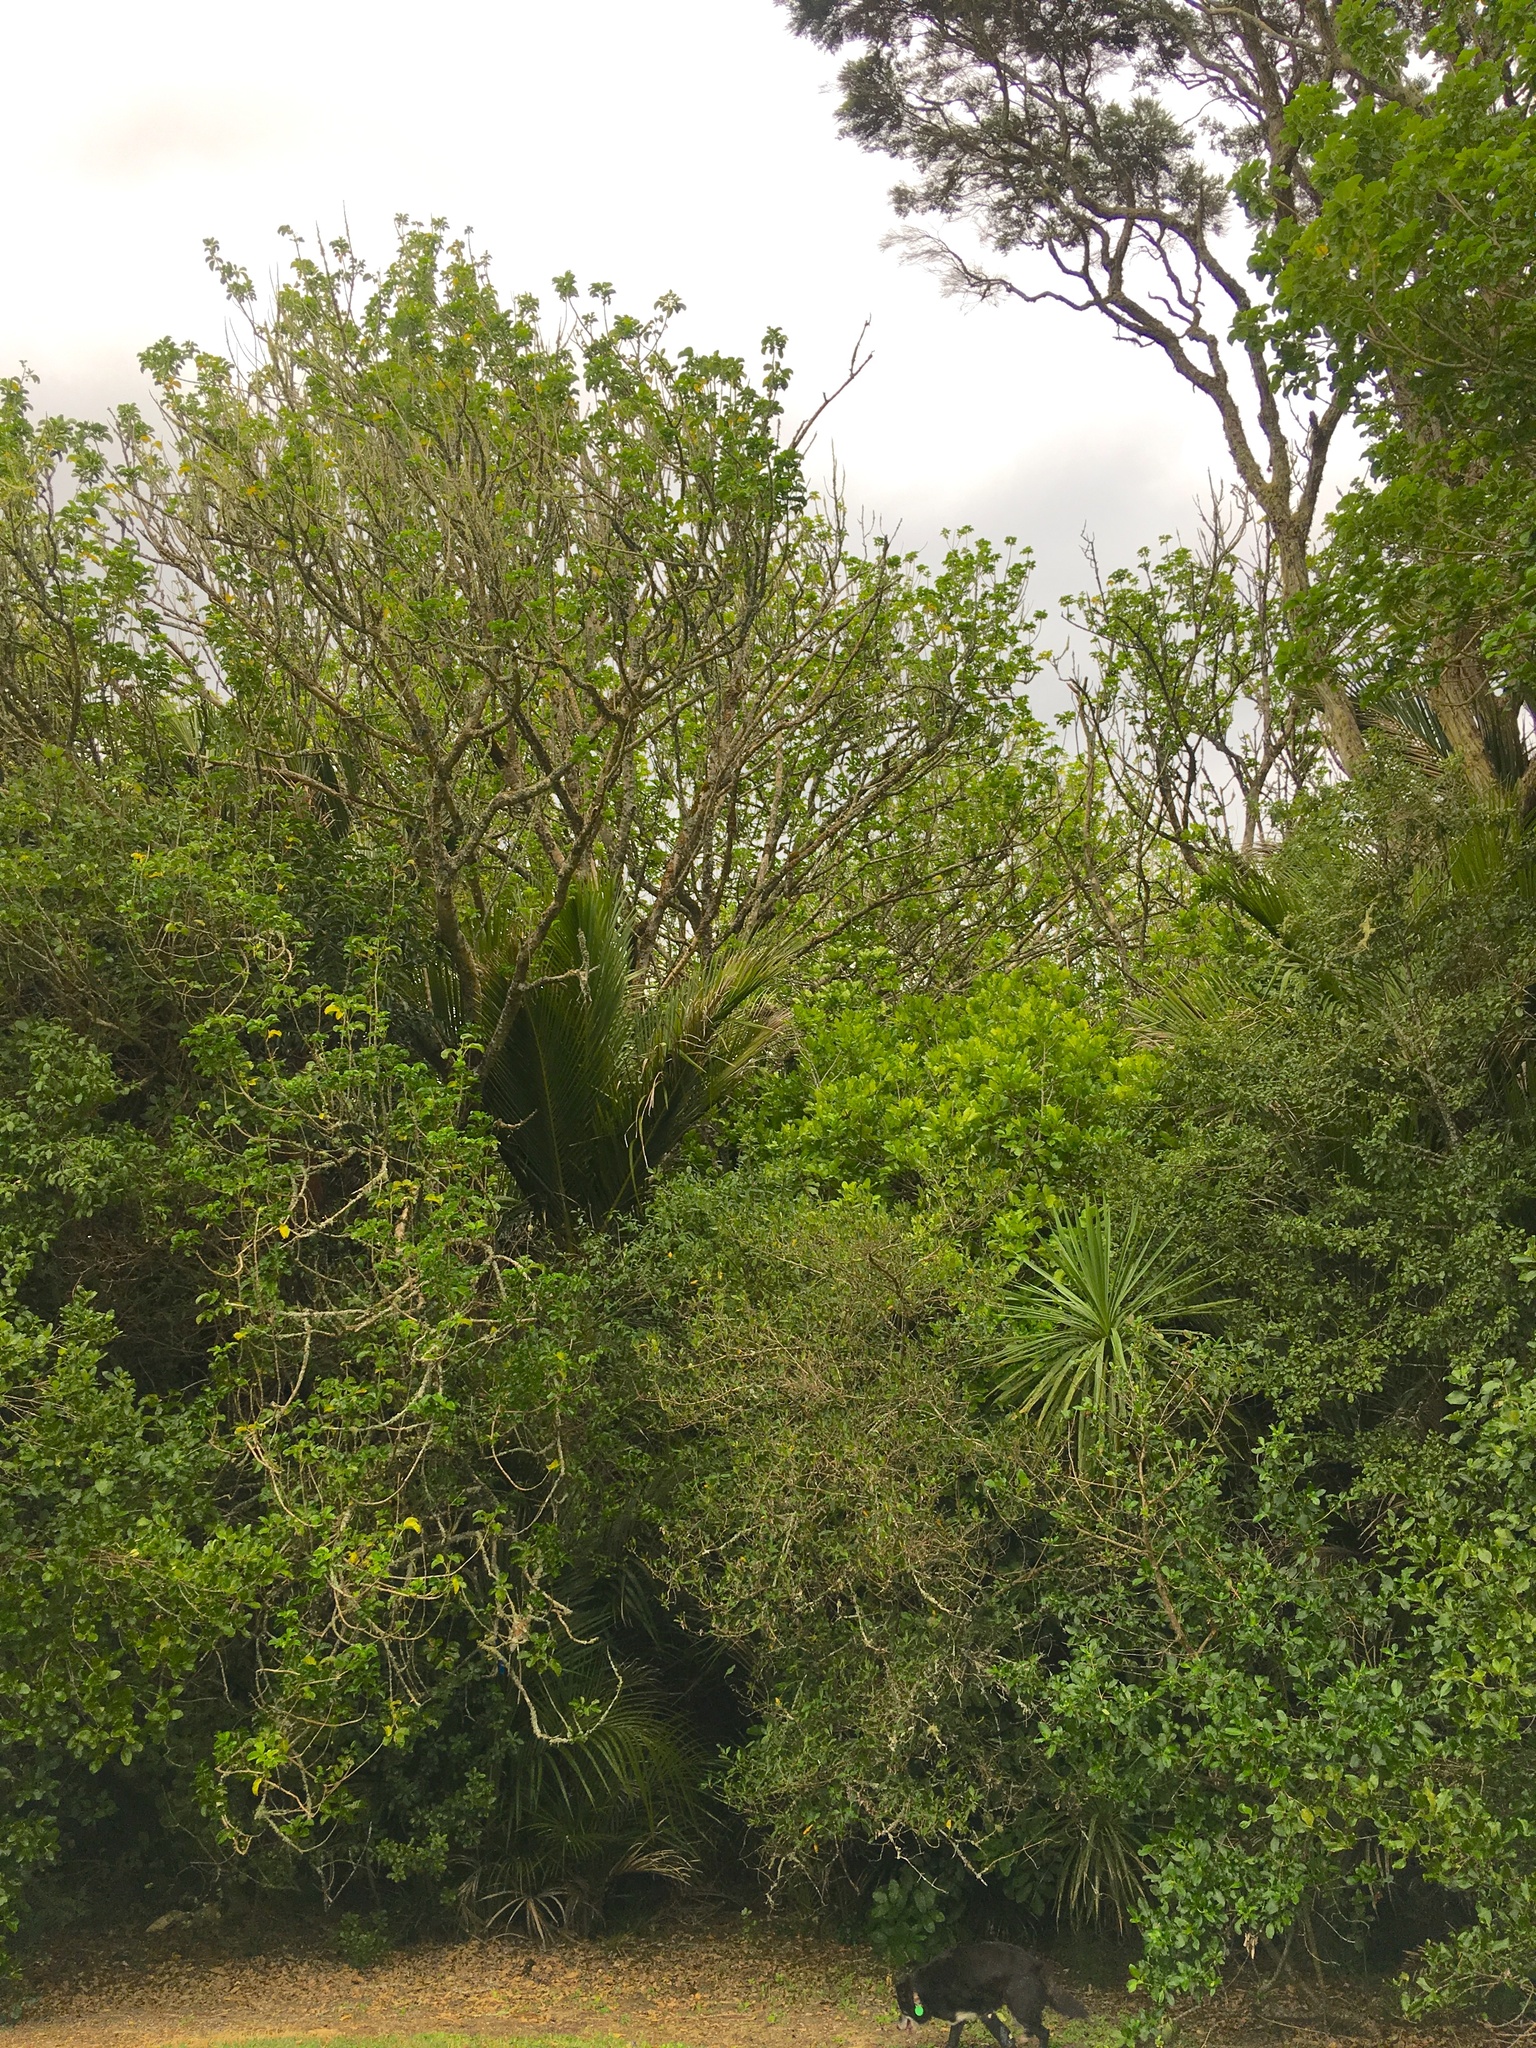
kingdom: Plantae
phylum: Tracheophyta
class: Magnoliopsida
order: Lamiales
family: Lamiaceae
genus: Vitex
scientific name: Vitex lucens
